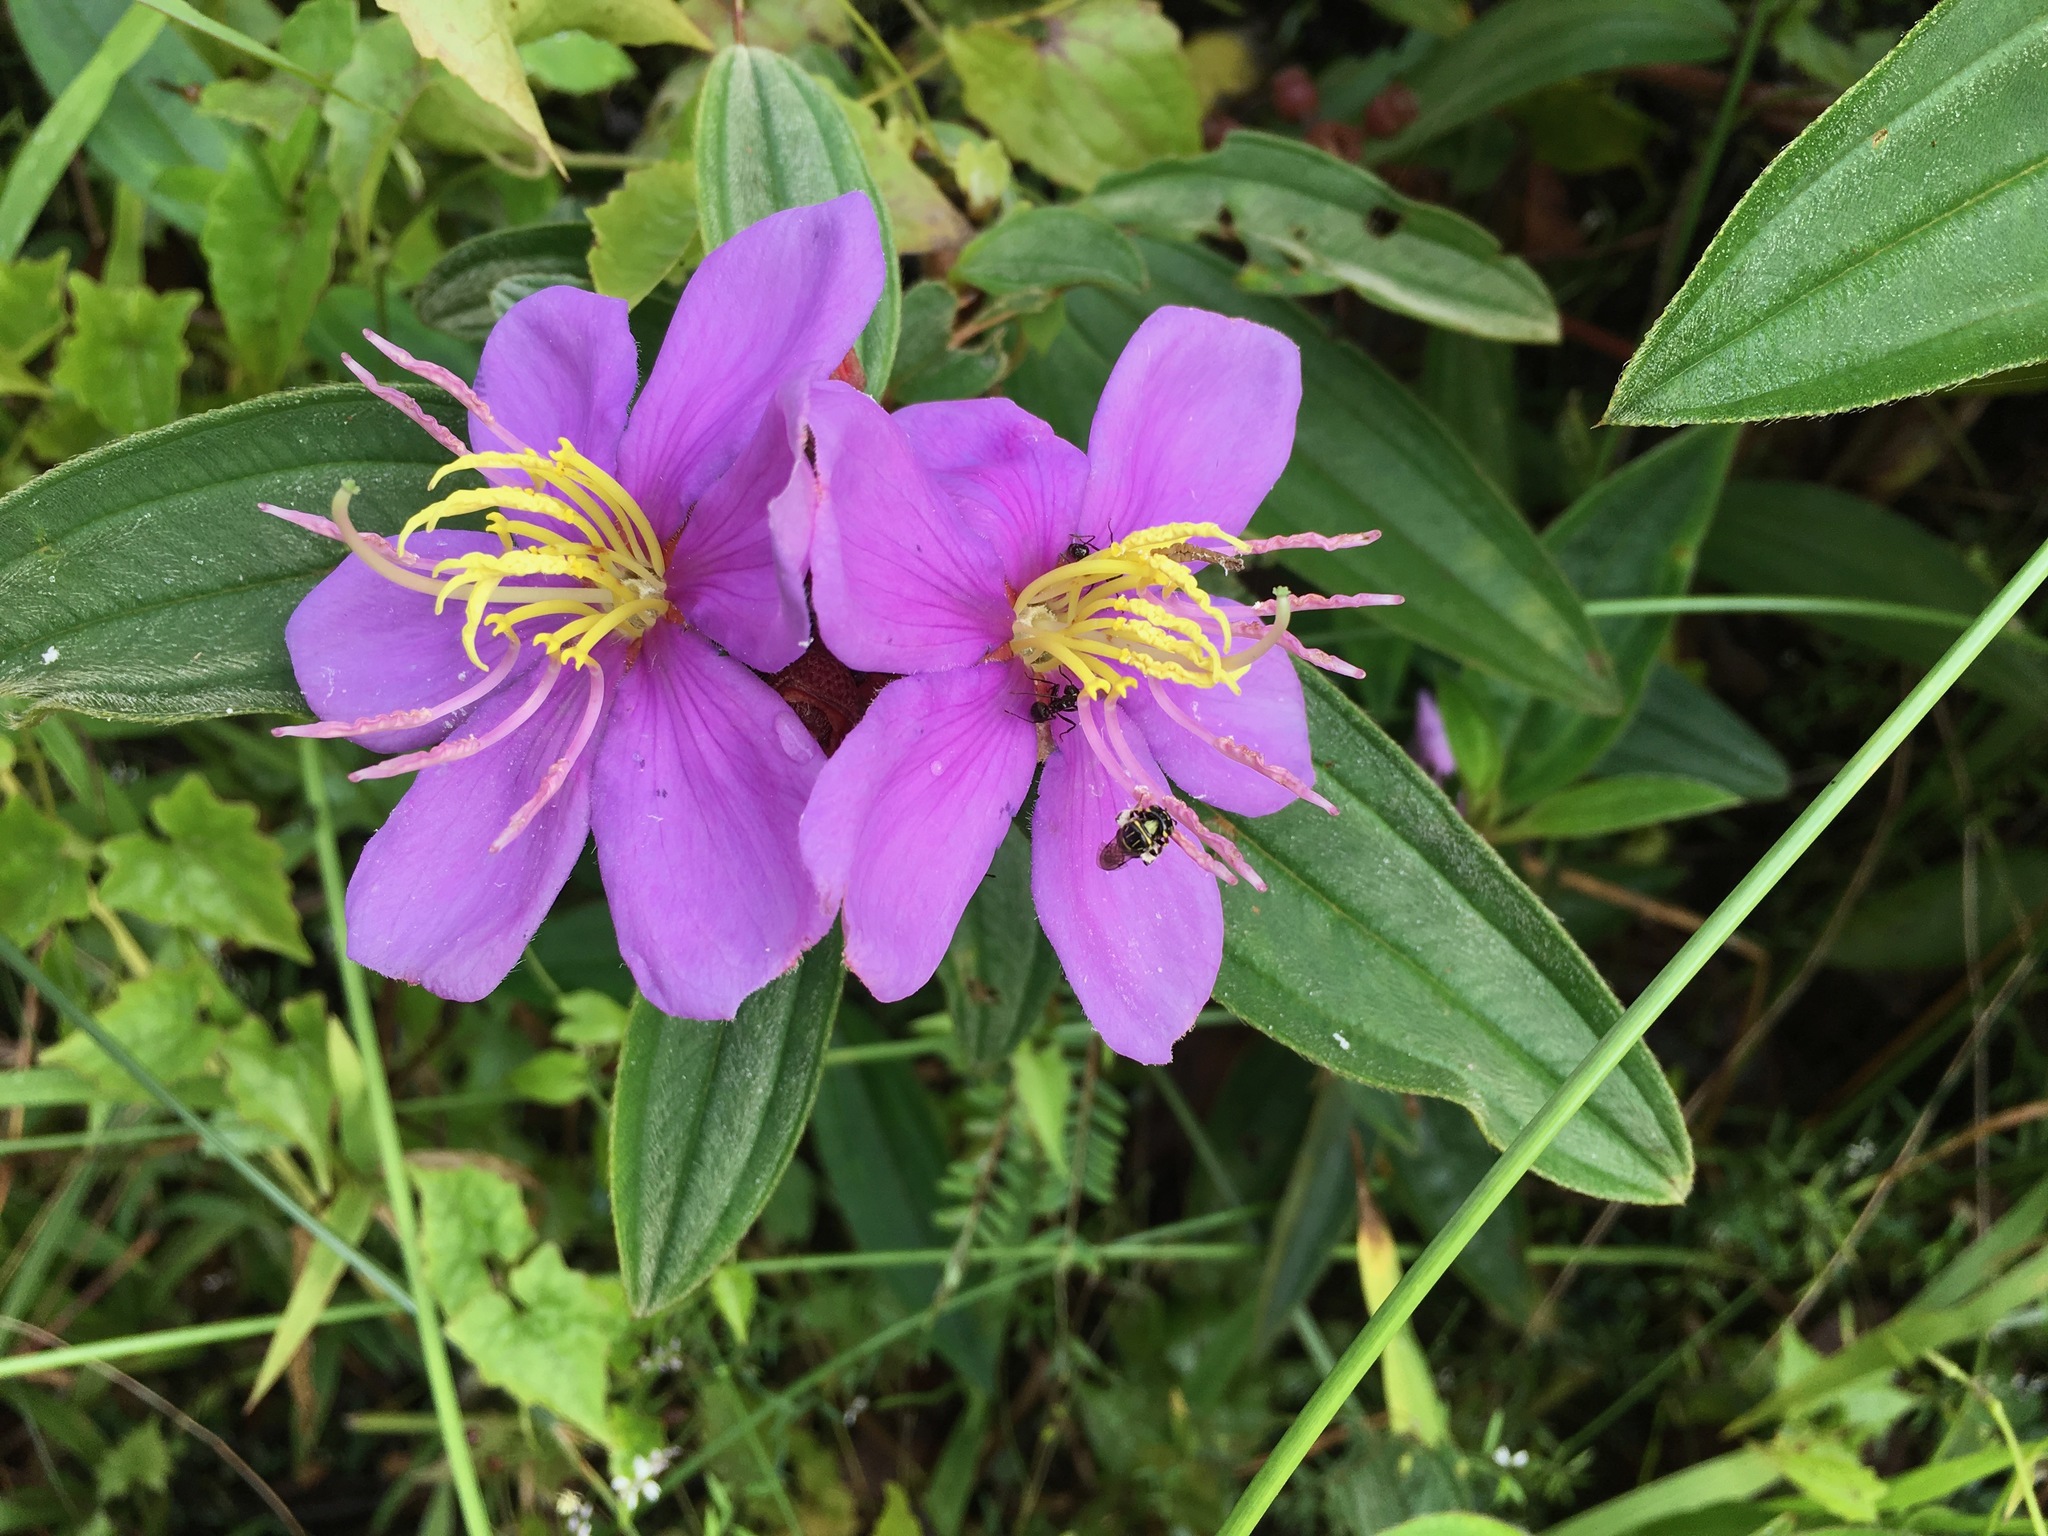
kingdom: Plantae
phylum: Tracheophyta
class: Magnoliopsida
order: Myrtales
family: Melastomataceae
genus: Melastoma
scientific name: Melastoma malabathricum
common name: Indian-rhododendron
